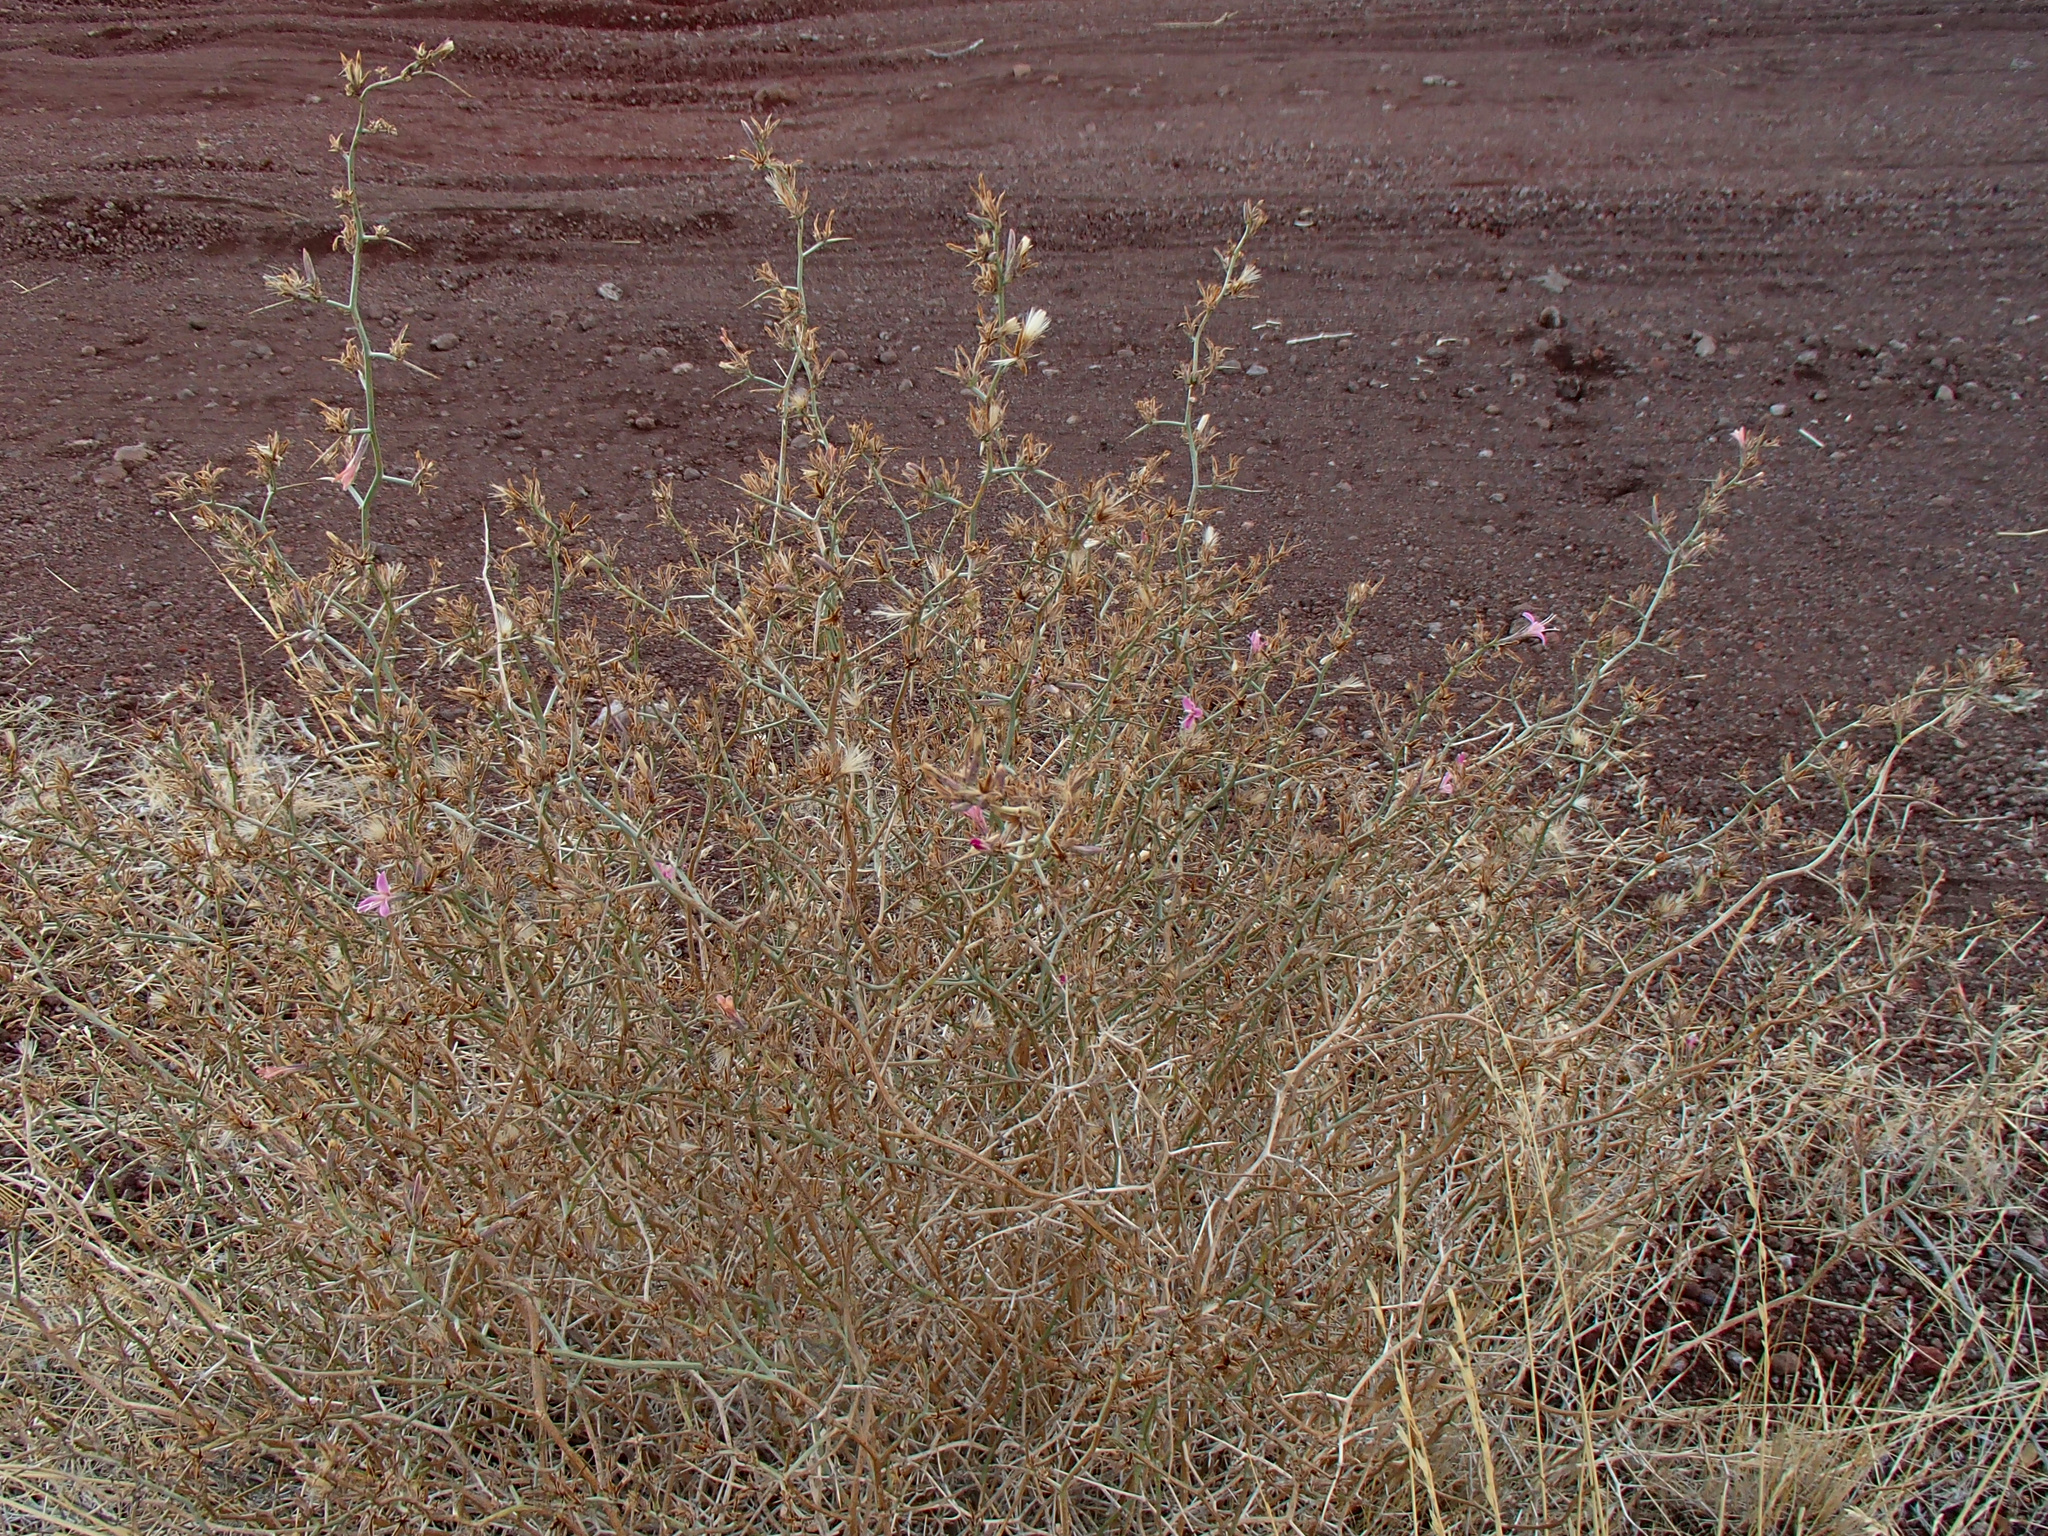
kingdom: Plantae
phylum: Tracheophyta
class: Magnoliopsida
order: Asterales
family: Asteraceae
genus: Pleiacanthus
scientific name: Pleiacanthus spinosus
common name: Thorny skeleton-weed
